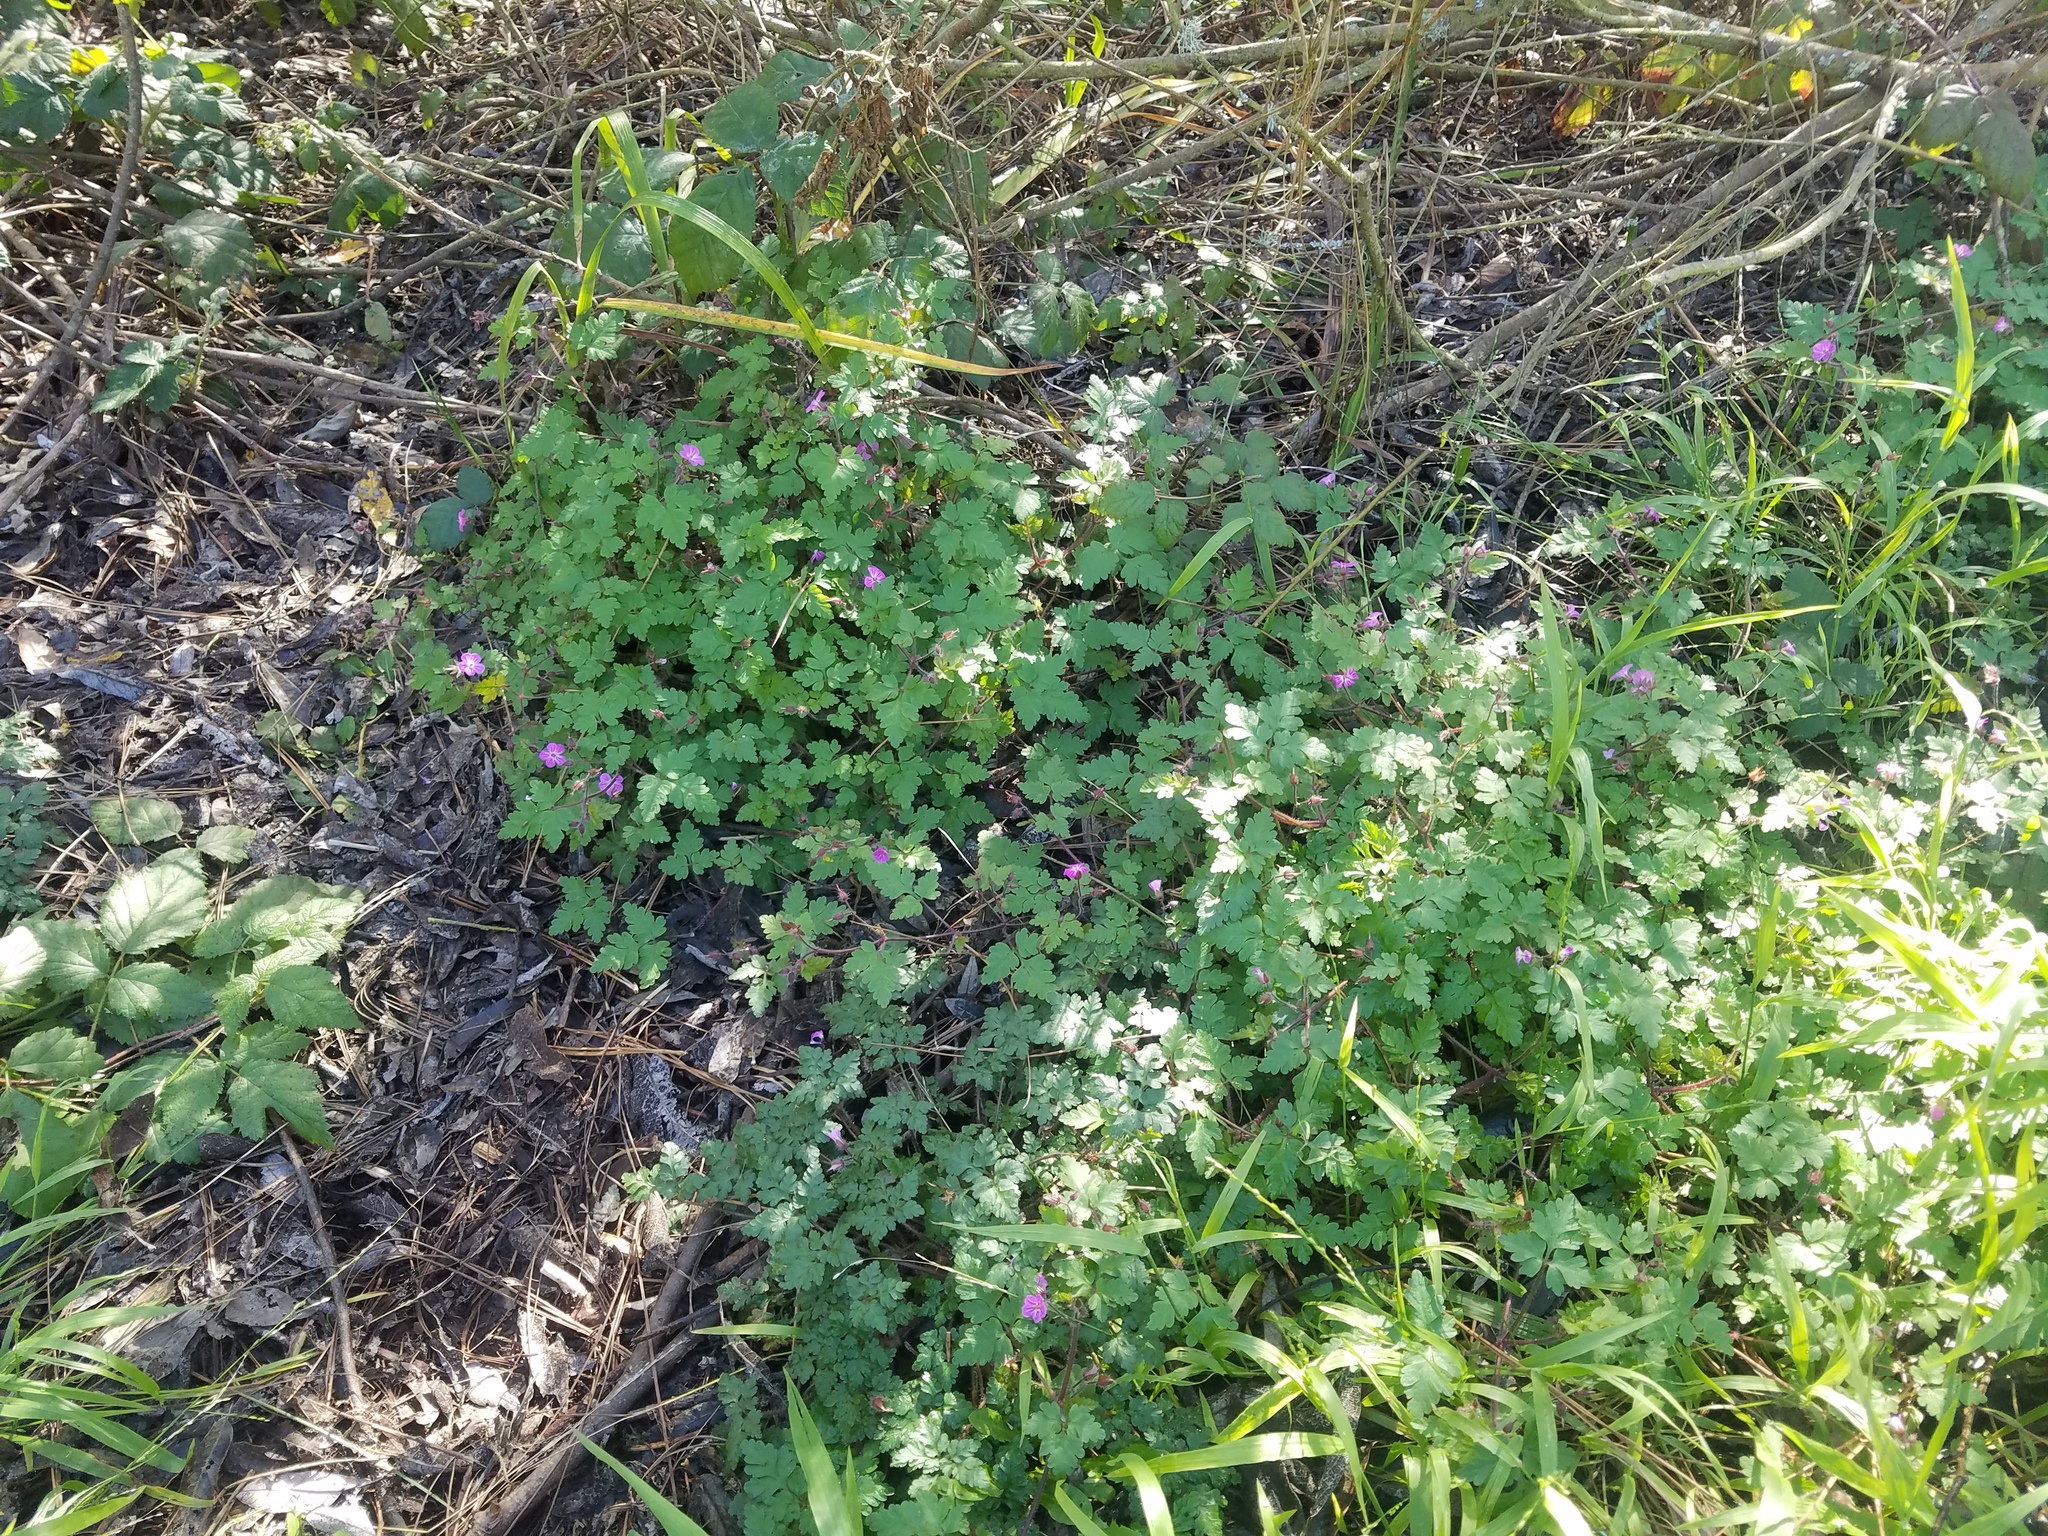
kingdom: Plantae
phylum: Tracheophyta
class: Magnoliopsida
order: Geraniales
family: Geraniaceae
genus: Geranium
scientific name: Geranium robertianum
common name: Herb-robert
